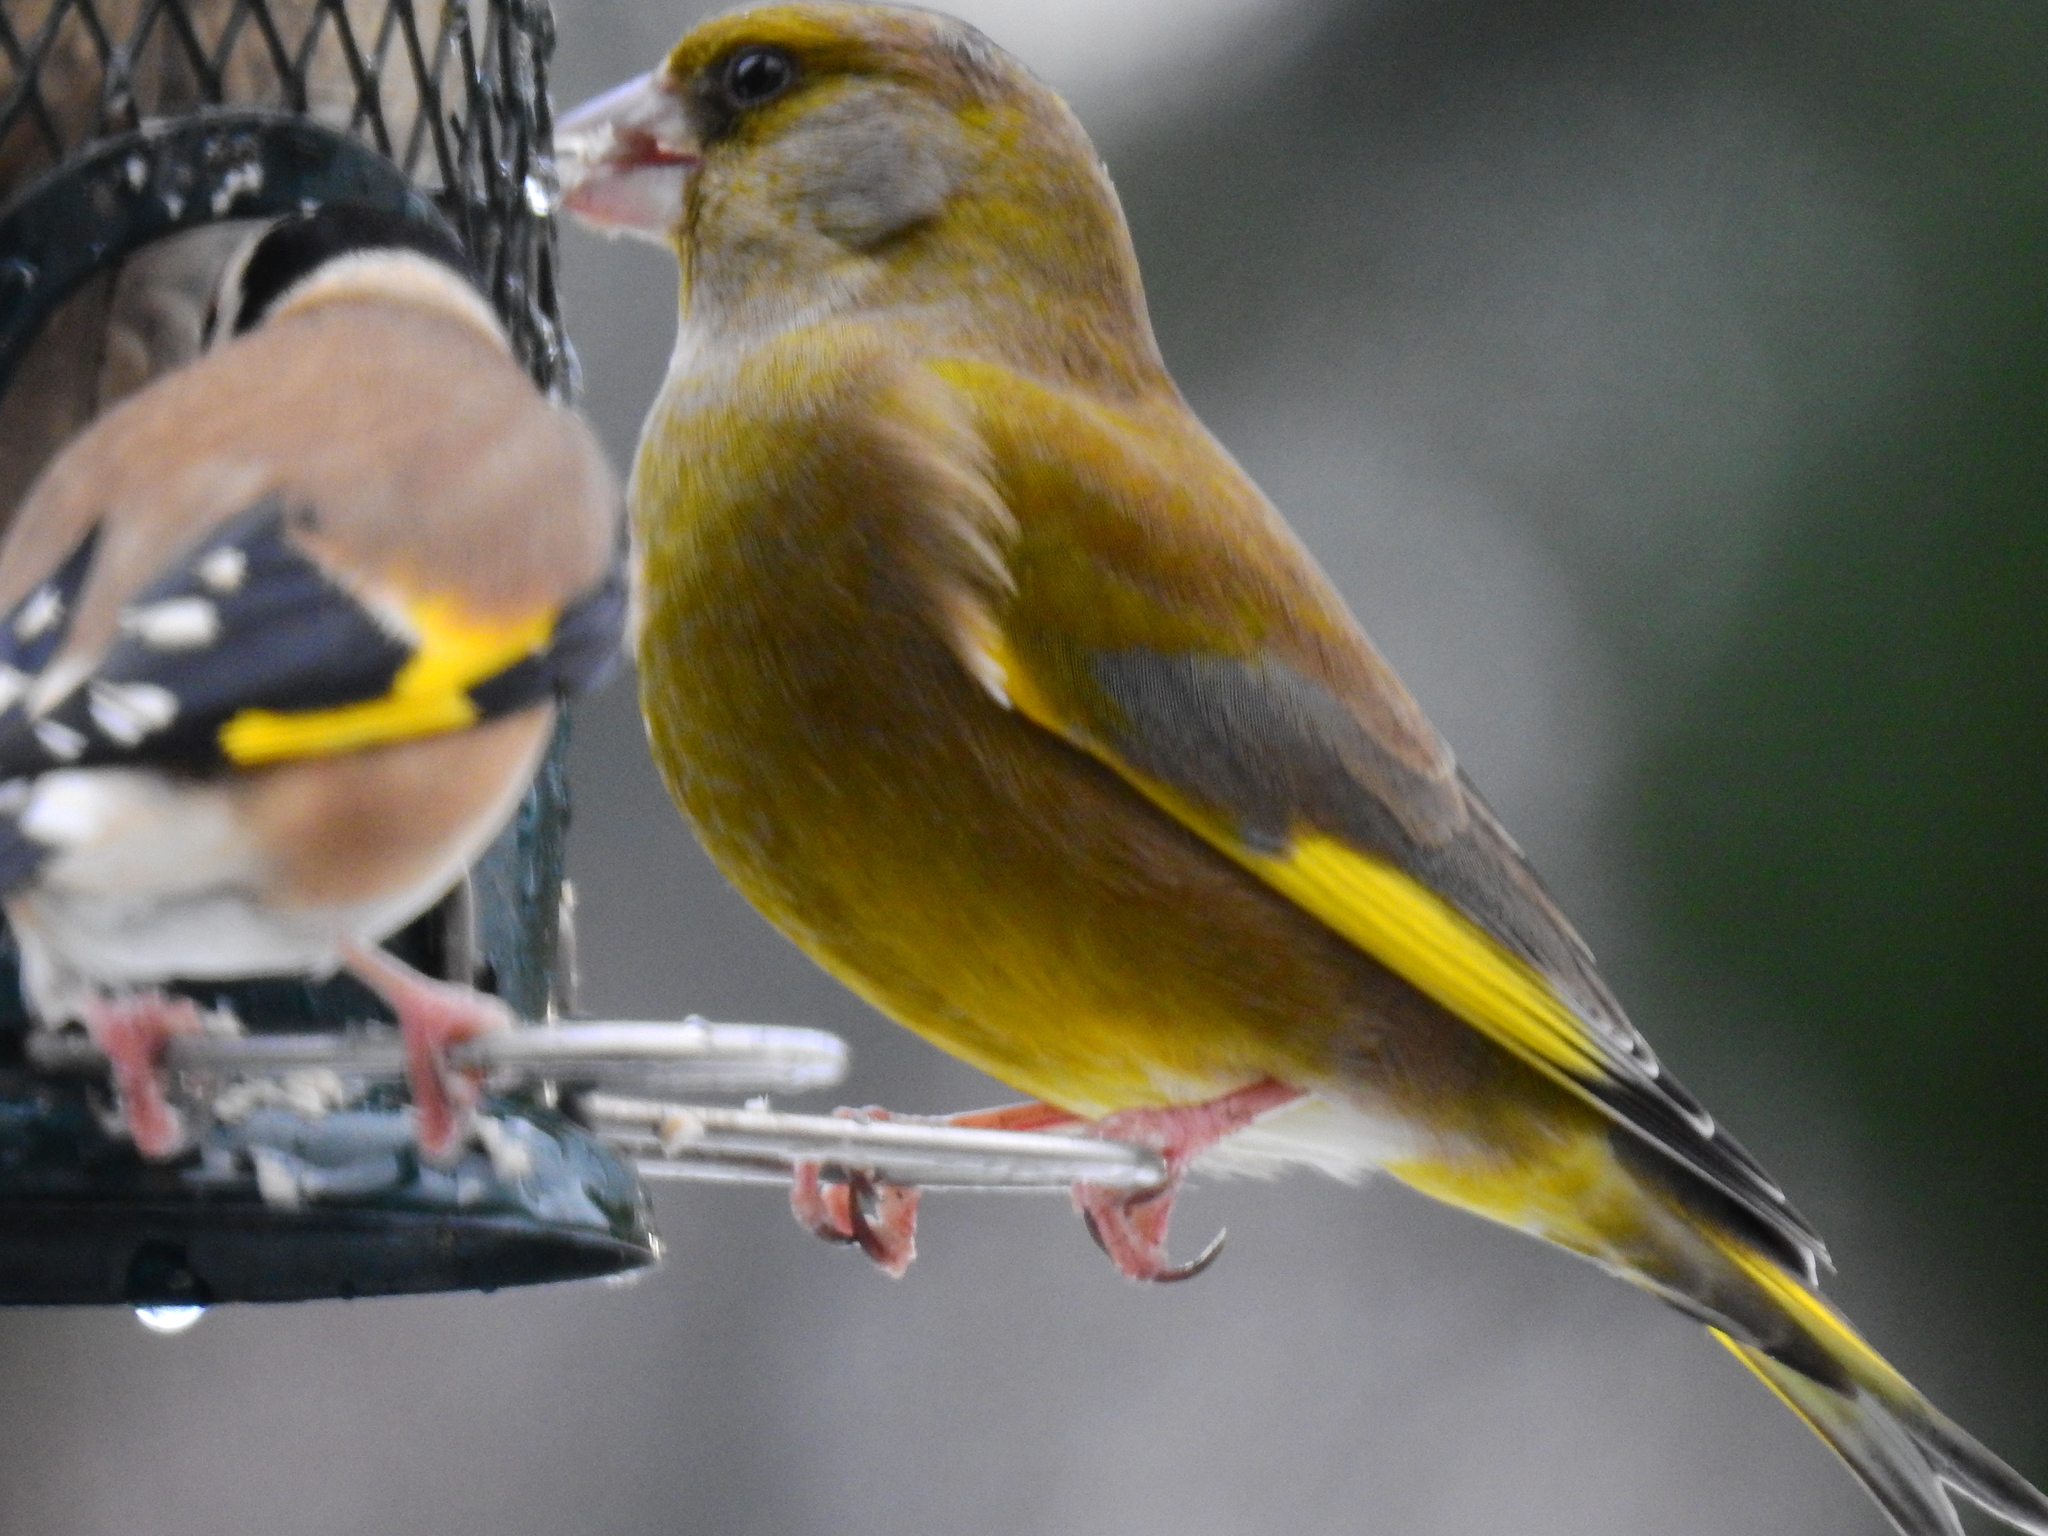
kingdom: Plantae
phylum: Tracheophyta
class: Liliopsida
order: Poales
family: Poaceae
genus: Chloris
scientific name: Chloris chloris
